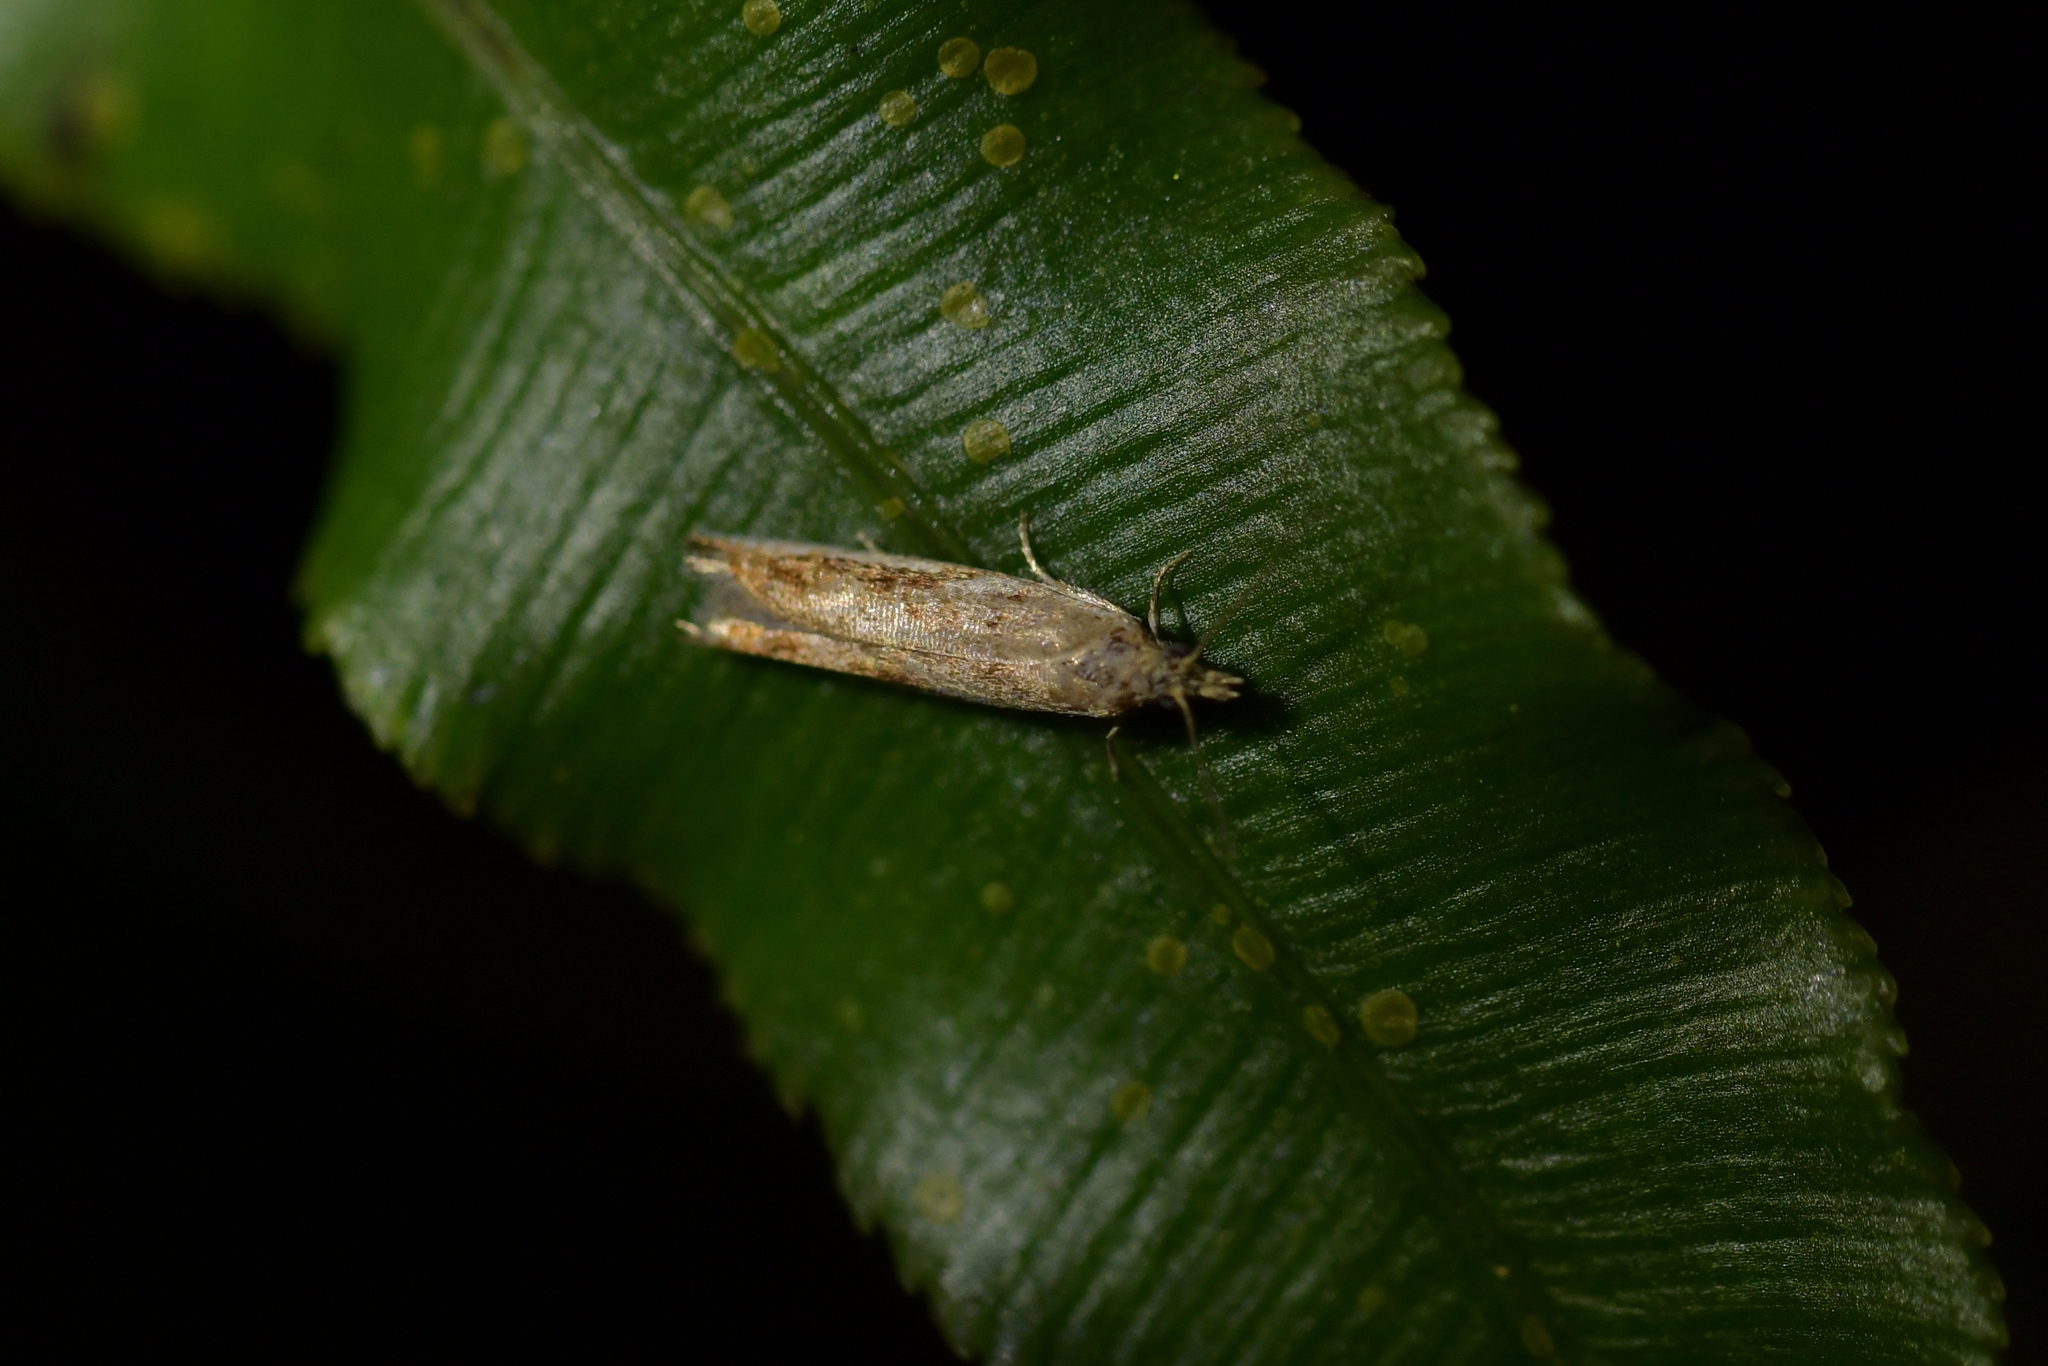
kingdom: Animalia
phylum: Arthropoda
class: Insecta
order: Lepidoptera
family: Tortricidae
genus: Holocola
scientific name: Holocola
